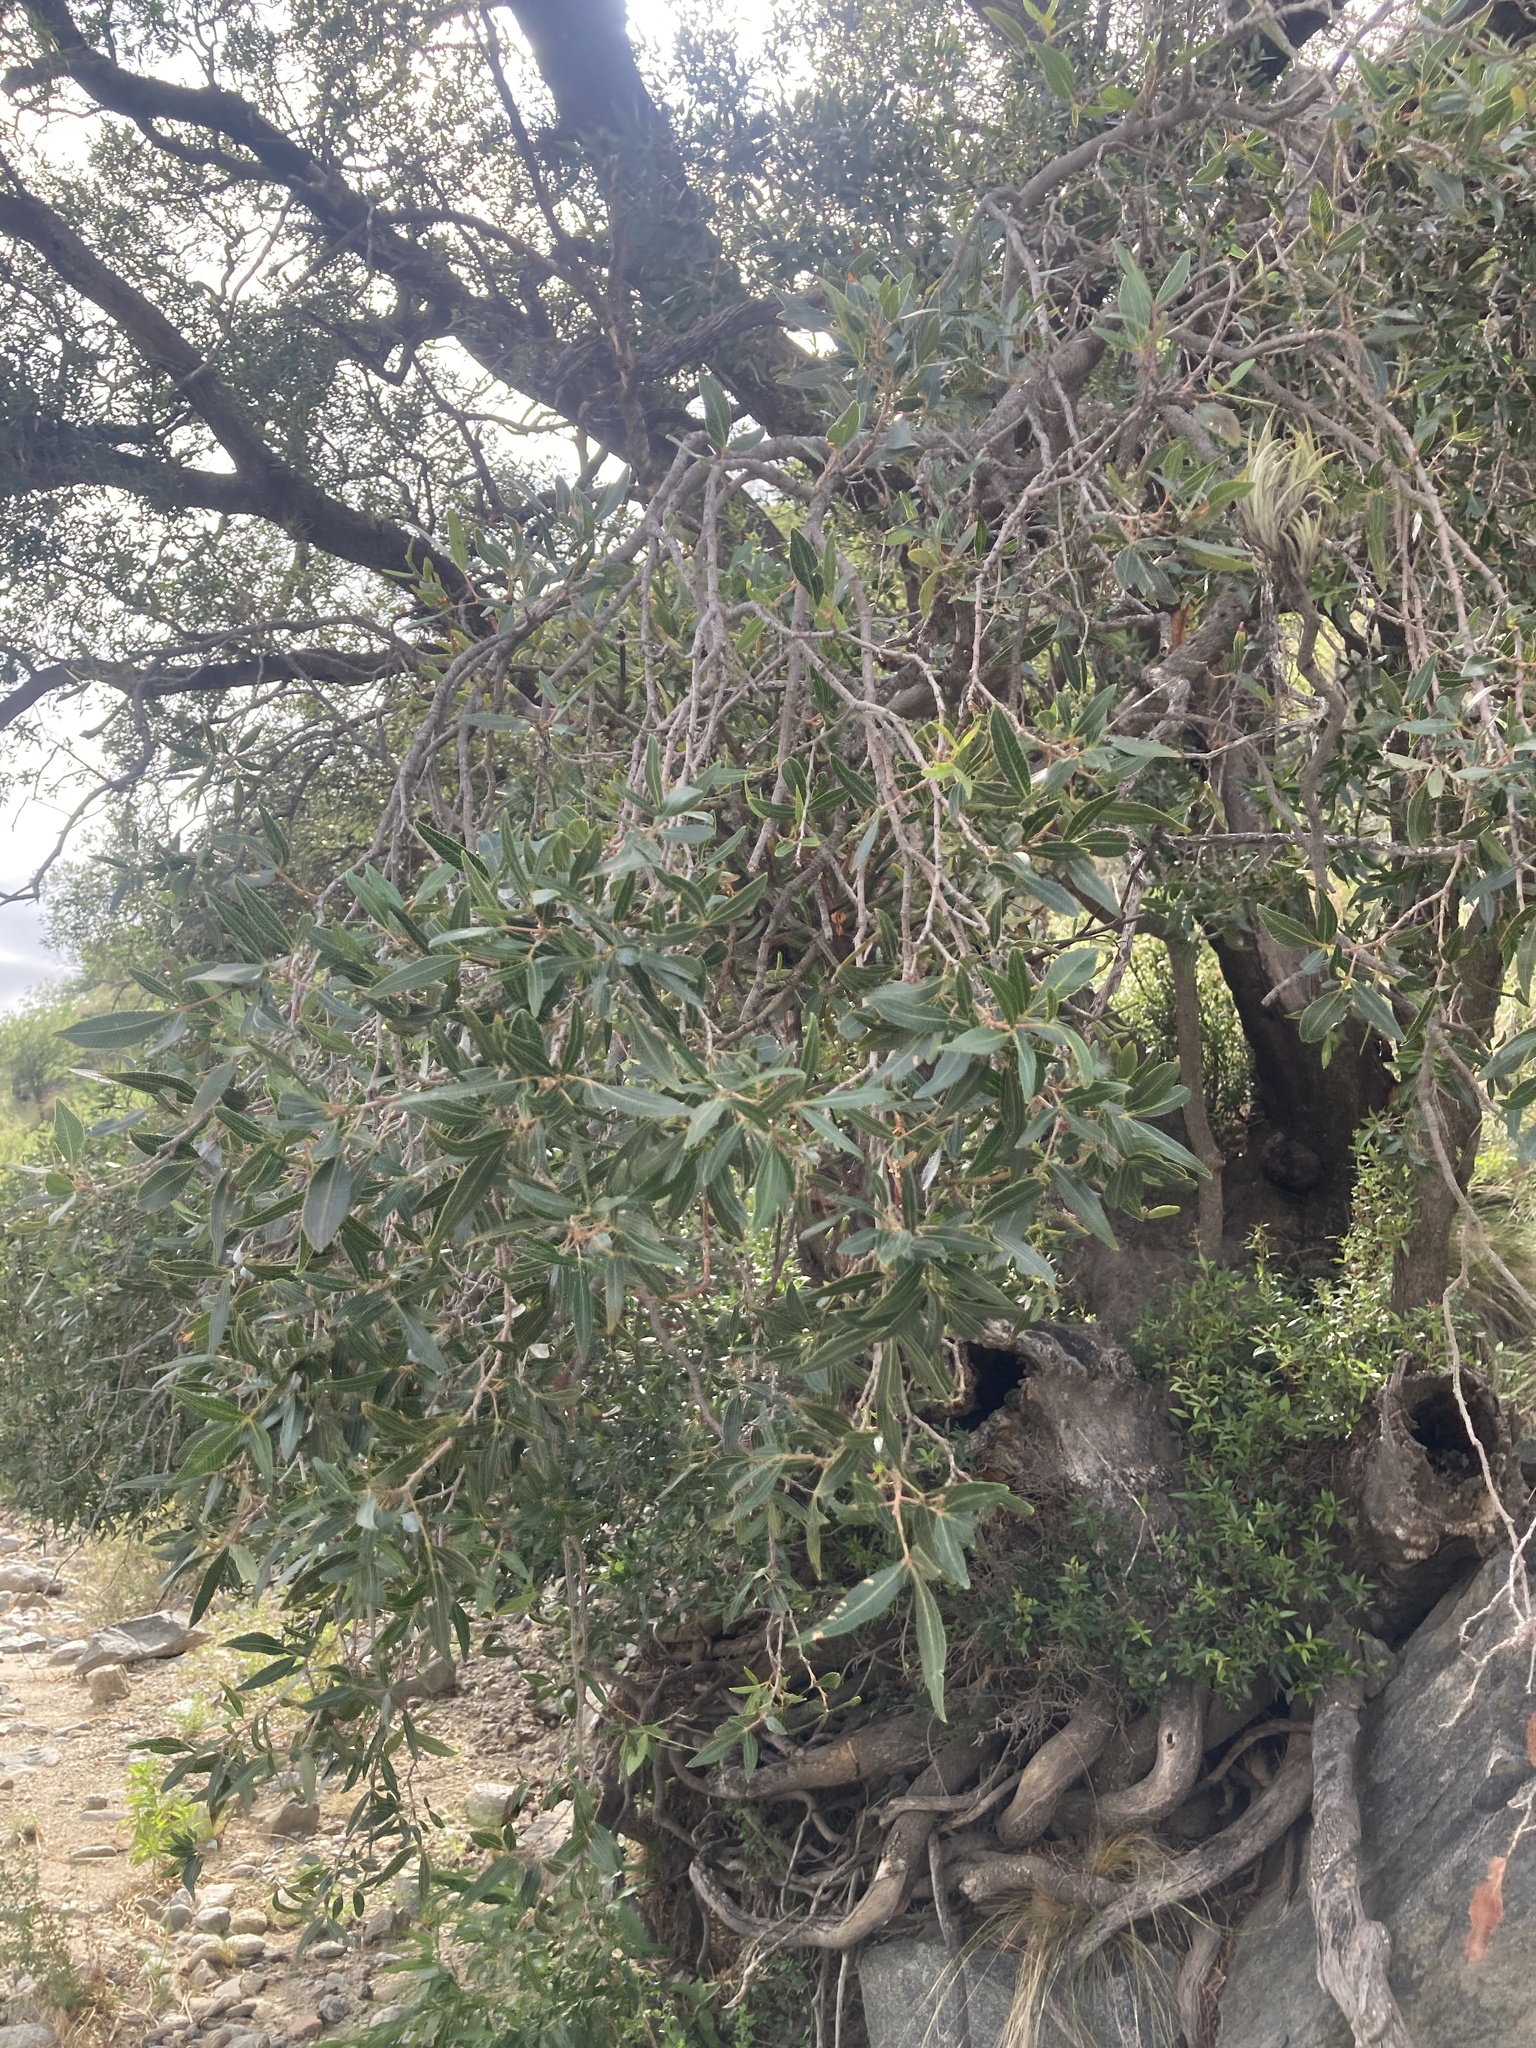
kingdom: Plantae
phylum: Tracheophyta
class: Magnoliopsida
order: Sapindales
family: Anacardiaceae
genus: Lithraea
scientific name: Lithraea molleoides
